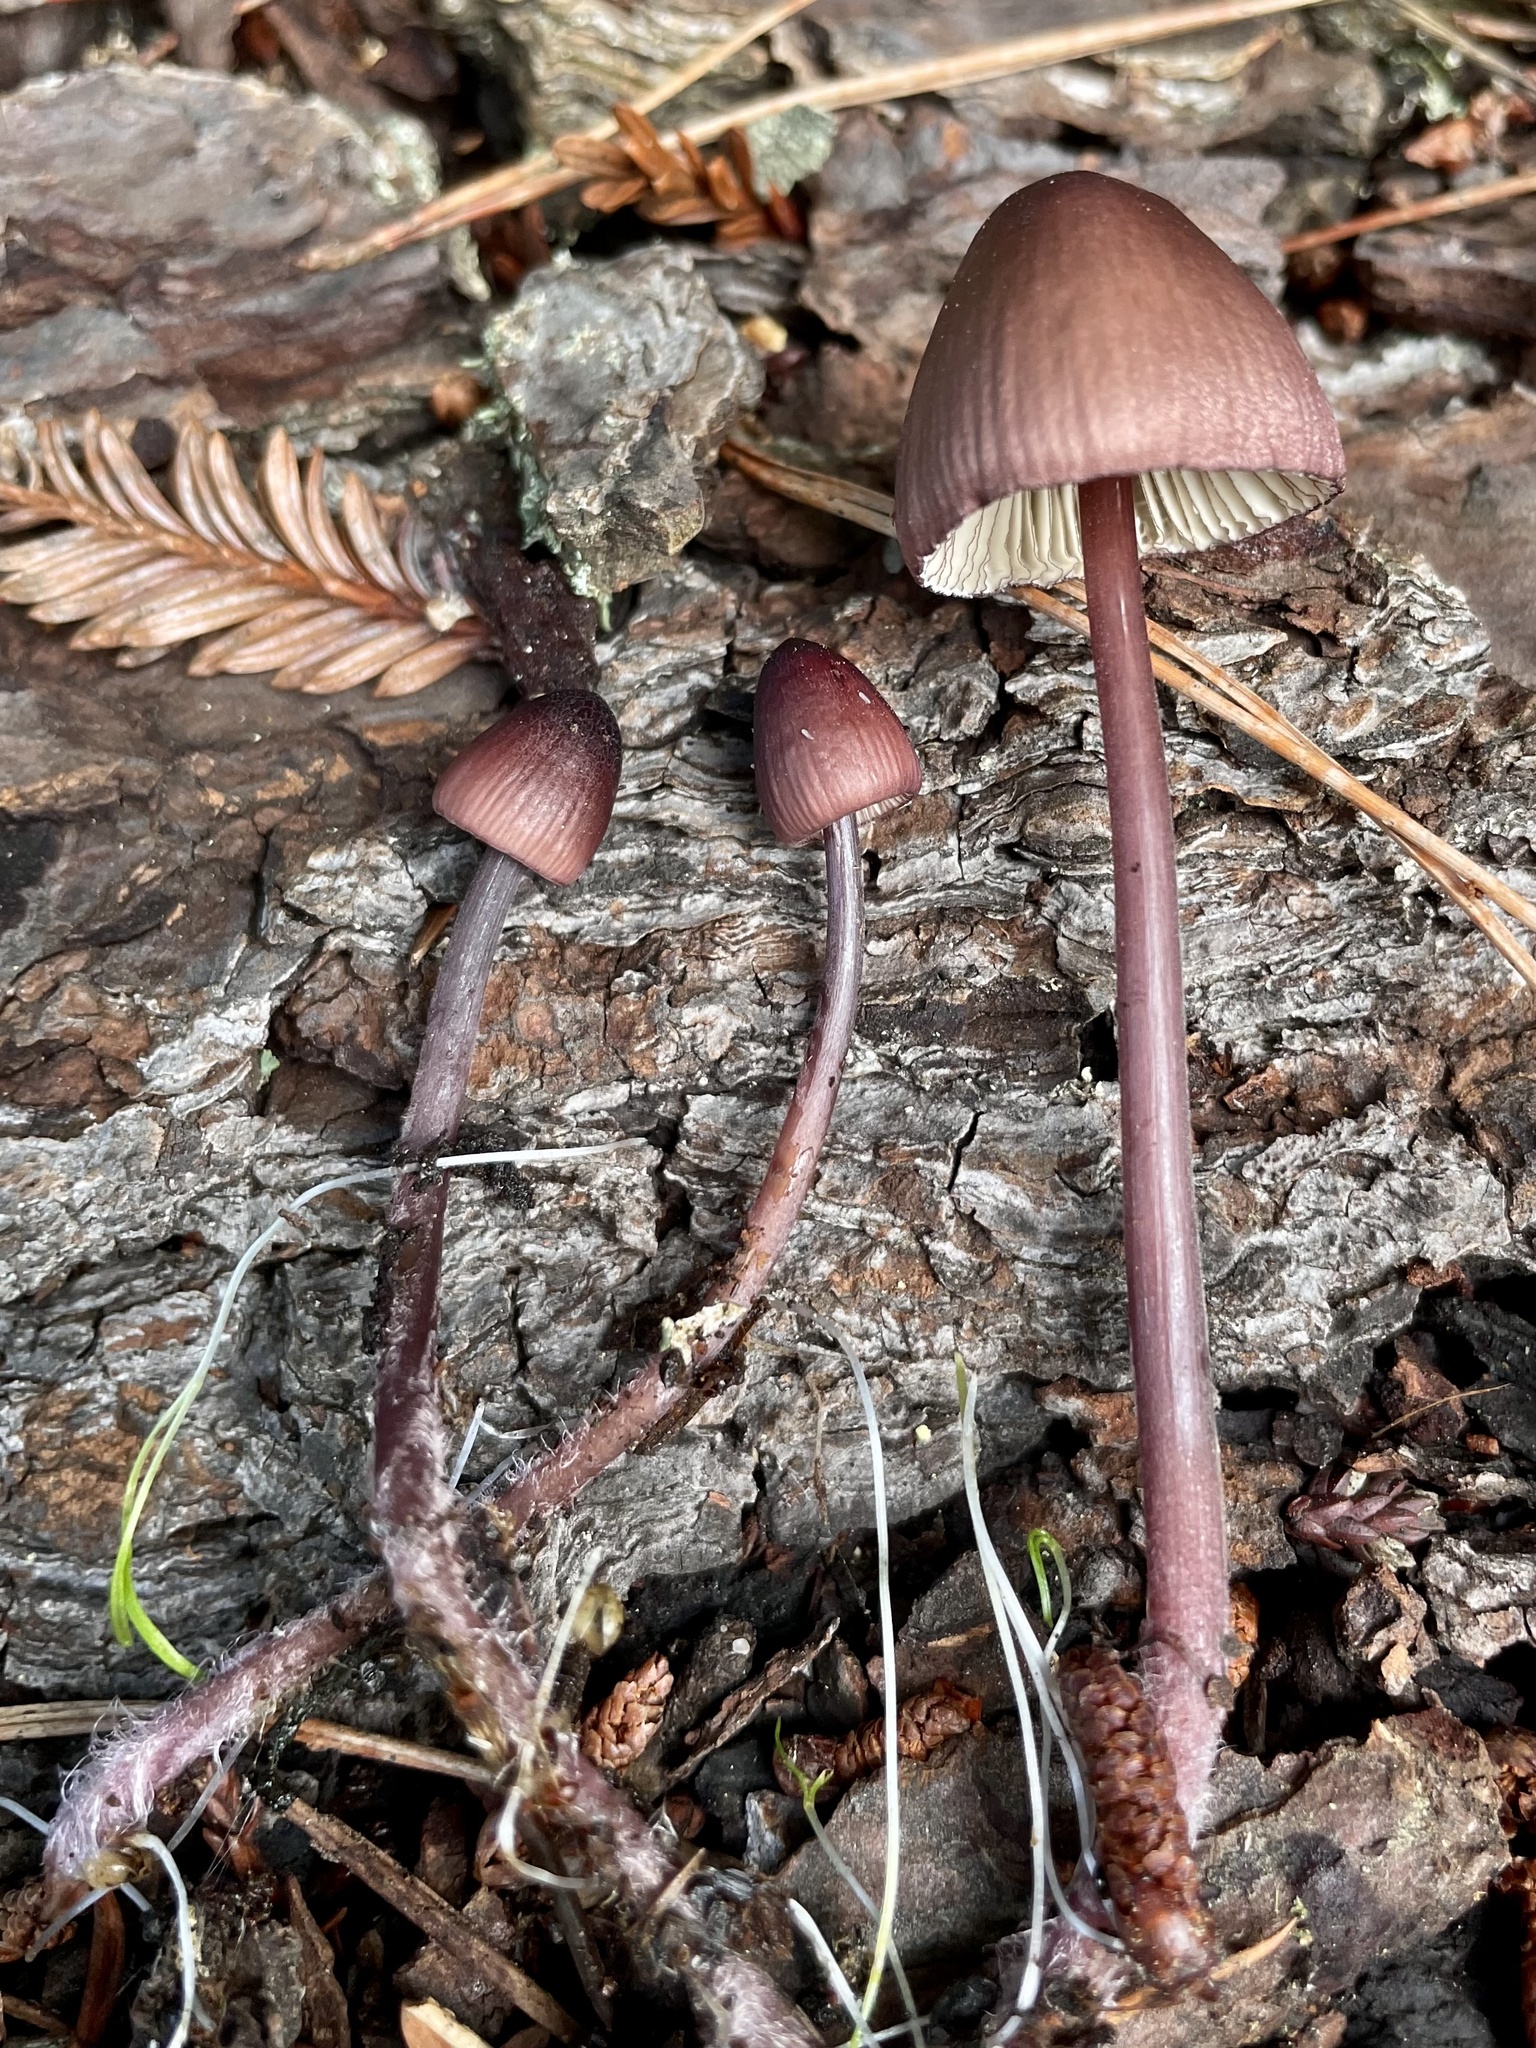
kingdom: Fungi
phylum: Basidiomycota
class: Agaricomycetes
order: Agaricales
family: Mycenaceae
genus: Mycena
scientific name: Mycena purpureofusca
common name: Purple edge bonnet
